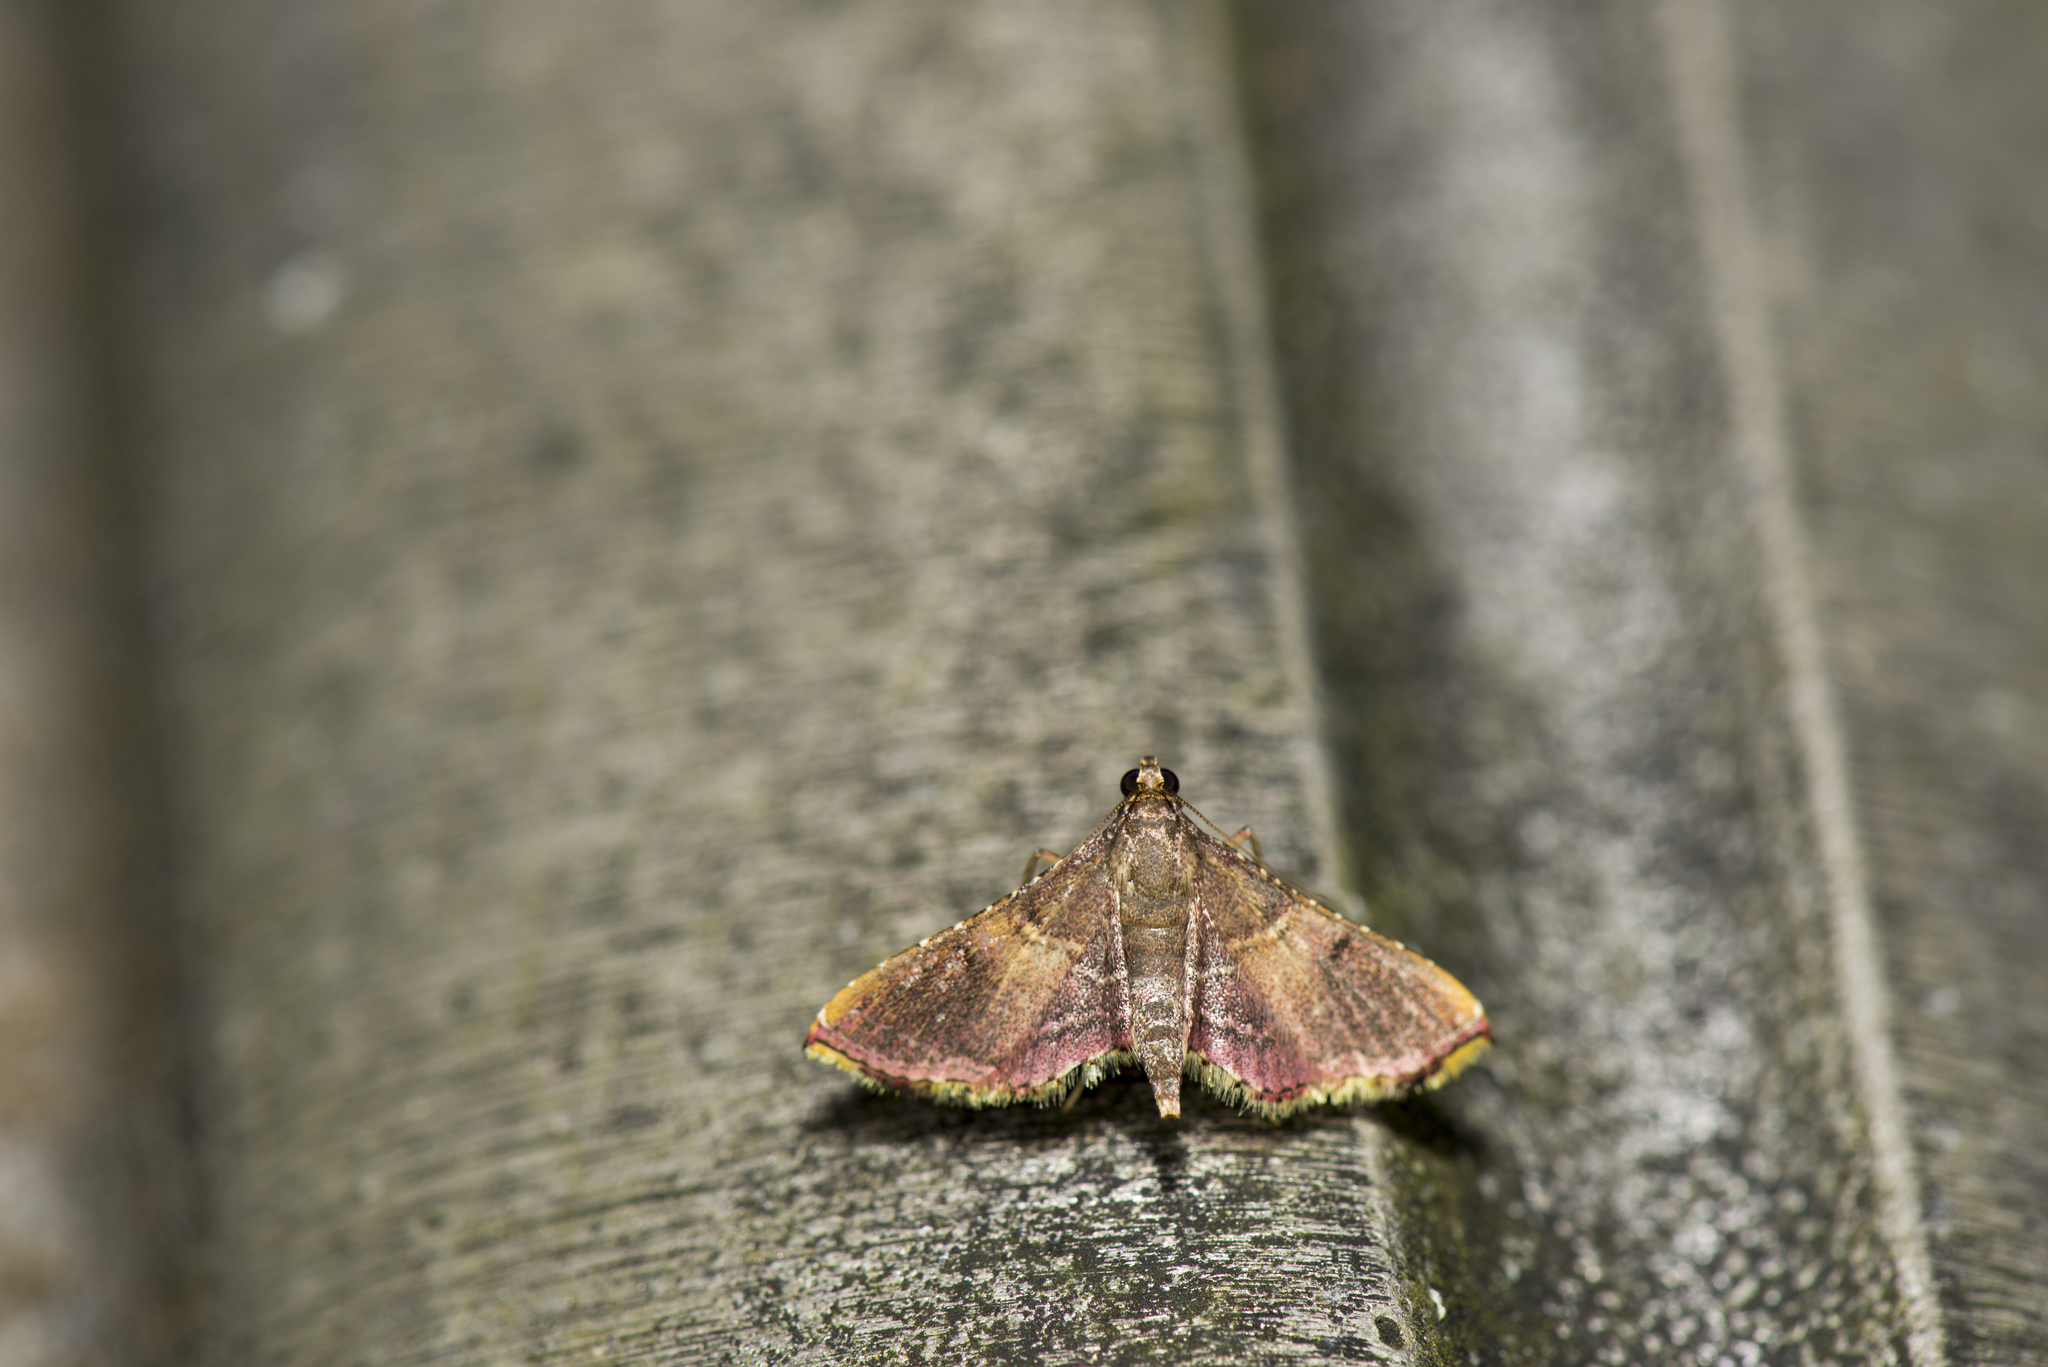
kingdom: Animalia
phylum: Arthropoda
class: Insecta
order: Lepidoptera
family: Pyralidae
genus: Endotricha
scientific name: Endotricha olivacealis
